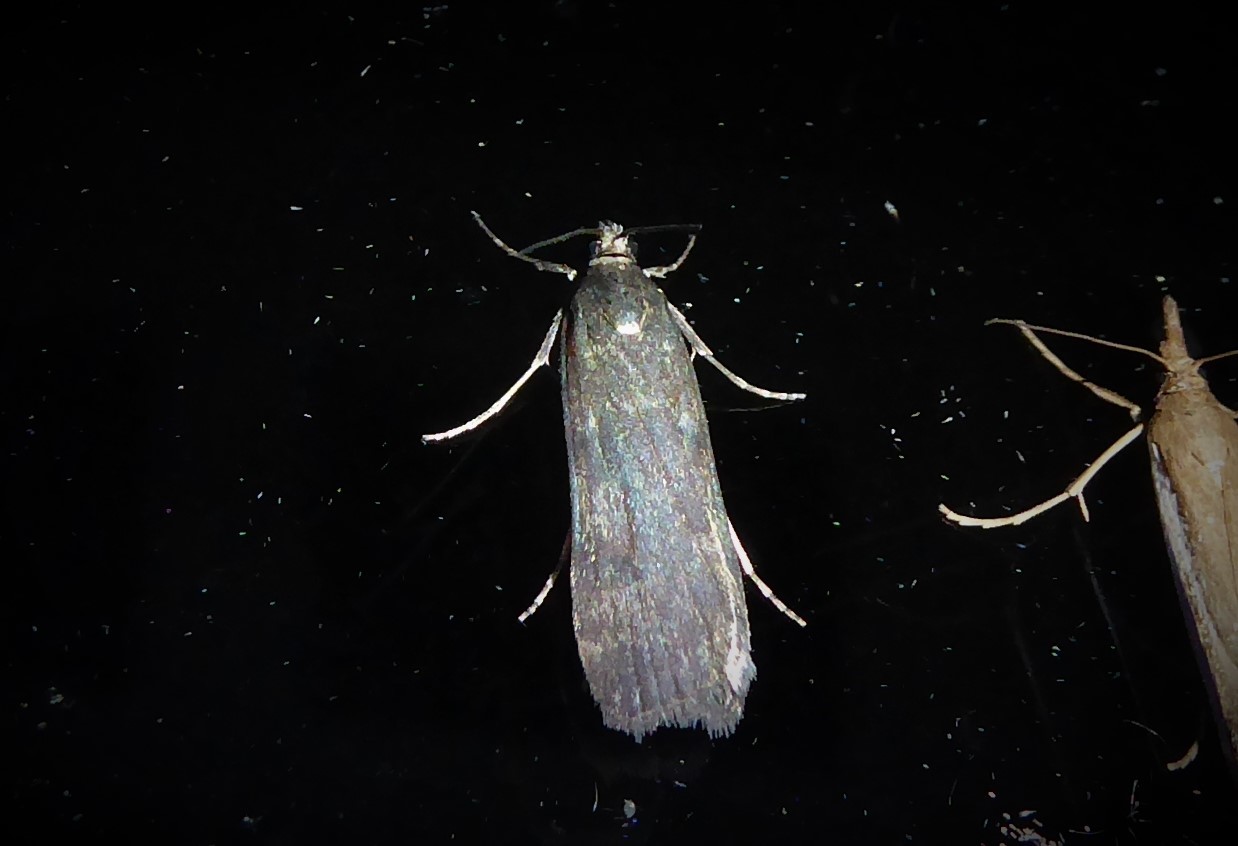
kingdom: Animalia
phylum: Arthropoda
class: Insecta
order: Lepidoptera
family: Crambidae
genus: Eudonia
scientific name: Eudonia cataxesta
